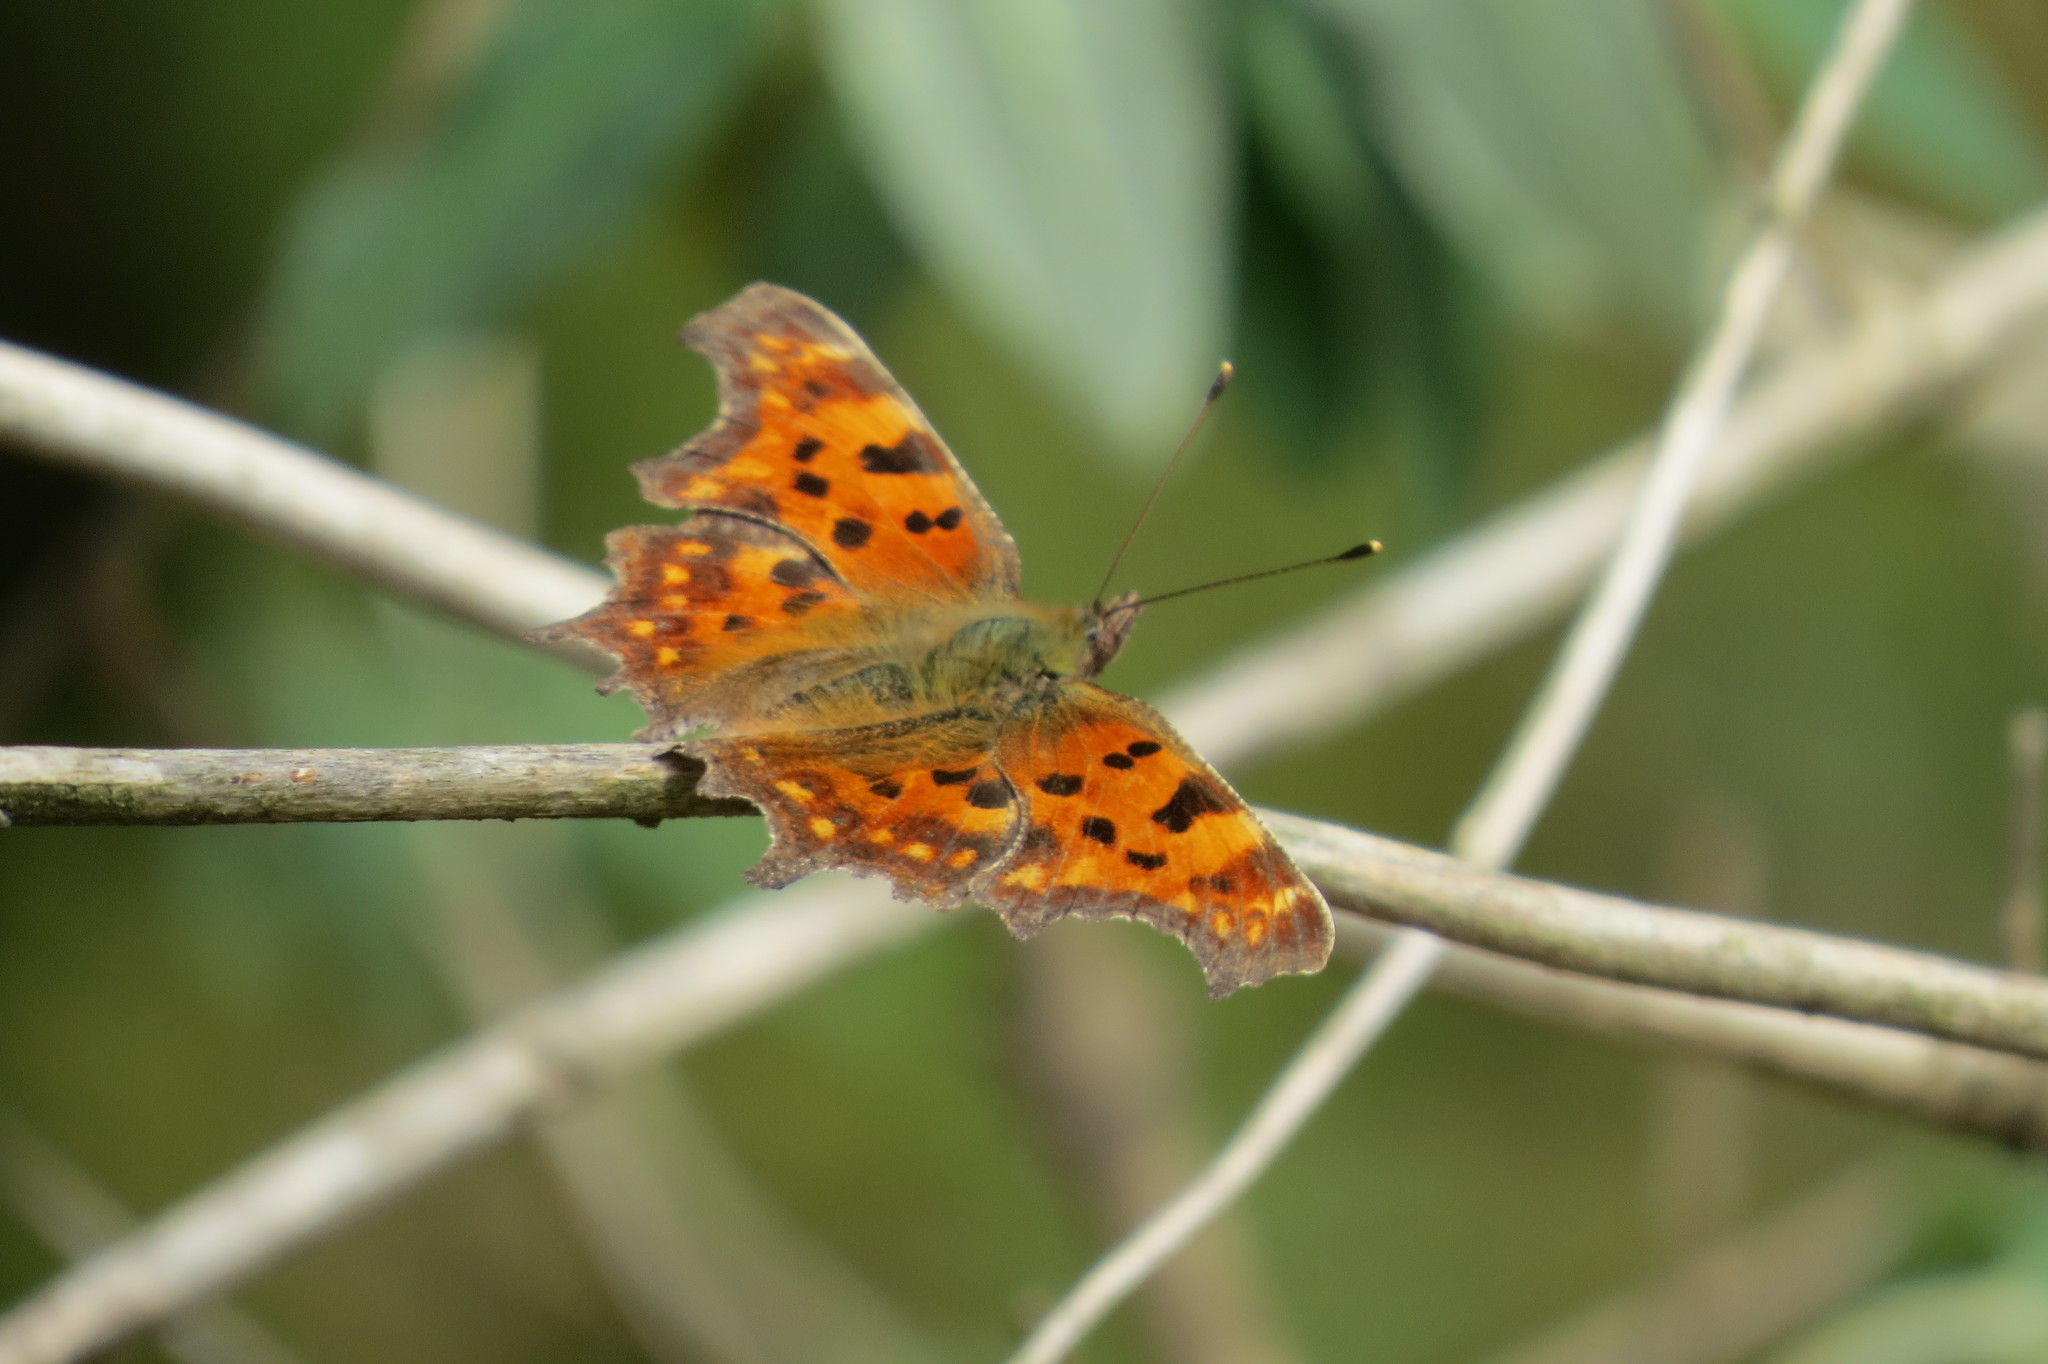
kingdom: Animalia
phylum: Arthropoda
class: Insecta
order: Lepidoptera
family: Nymphalidae
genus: Polygonia
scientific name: Polygonia c-album
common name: Comma
